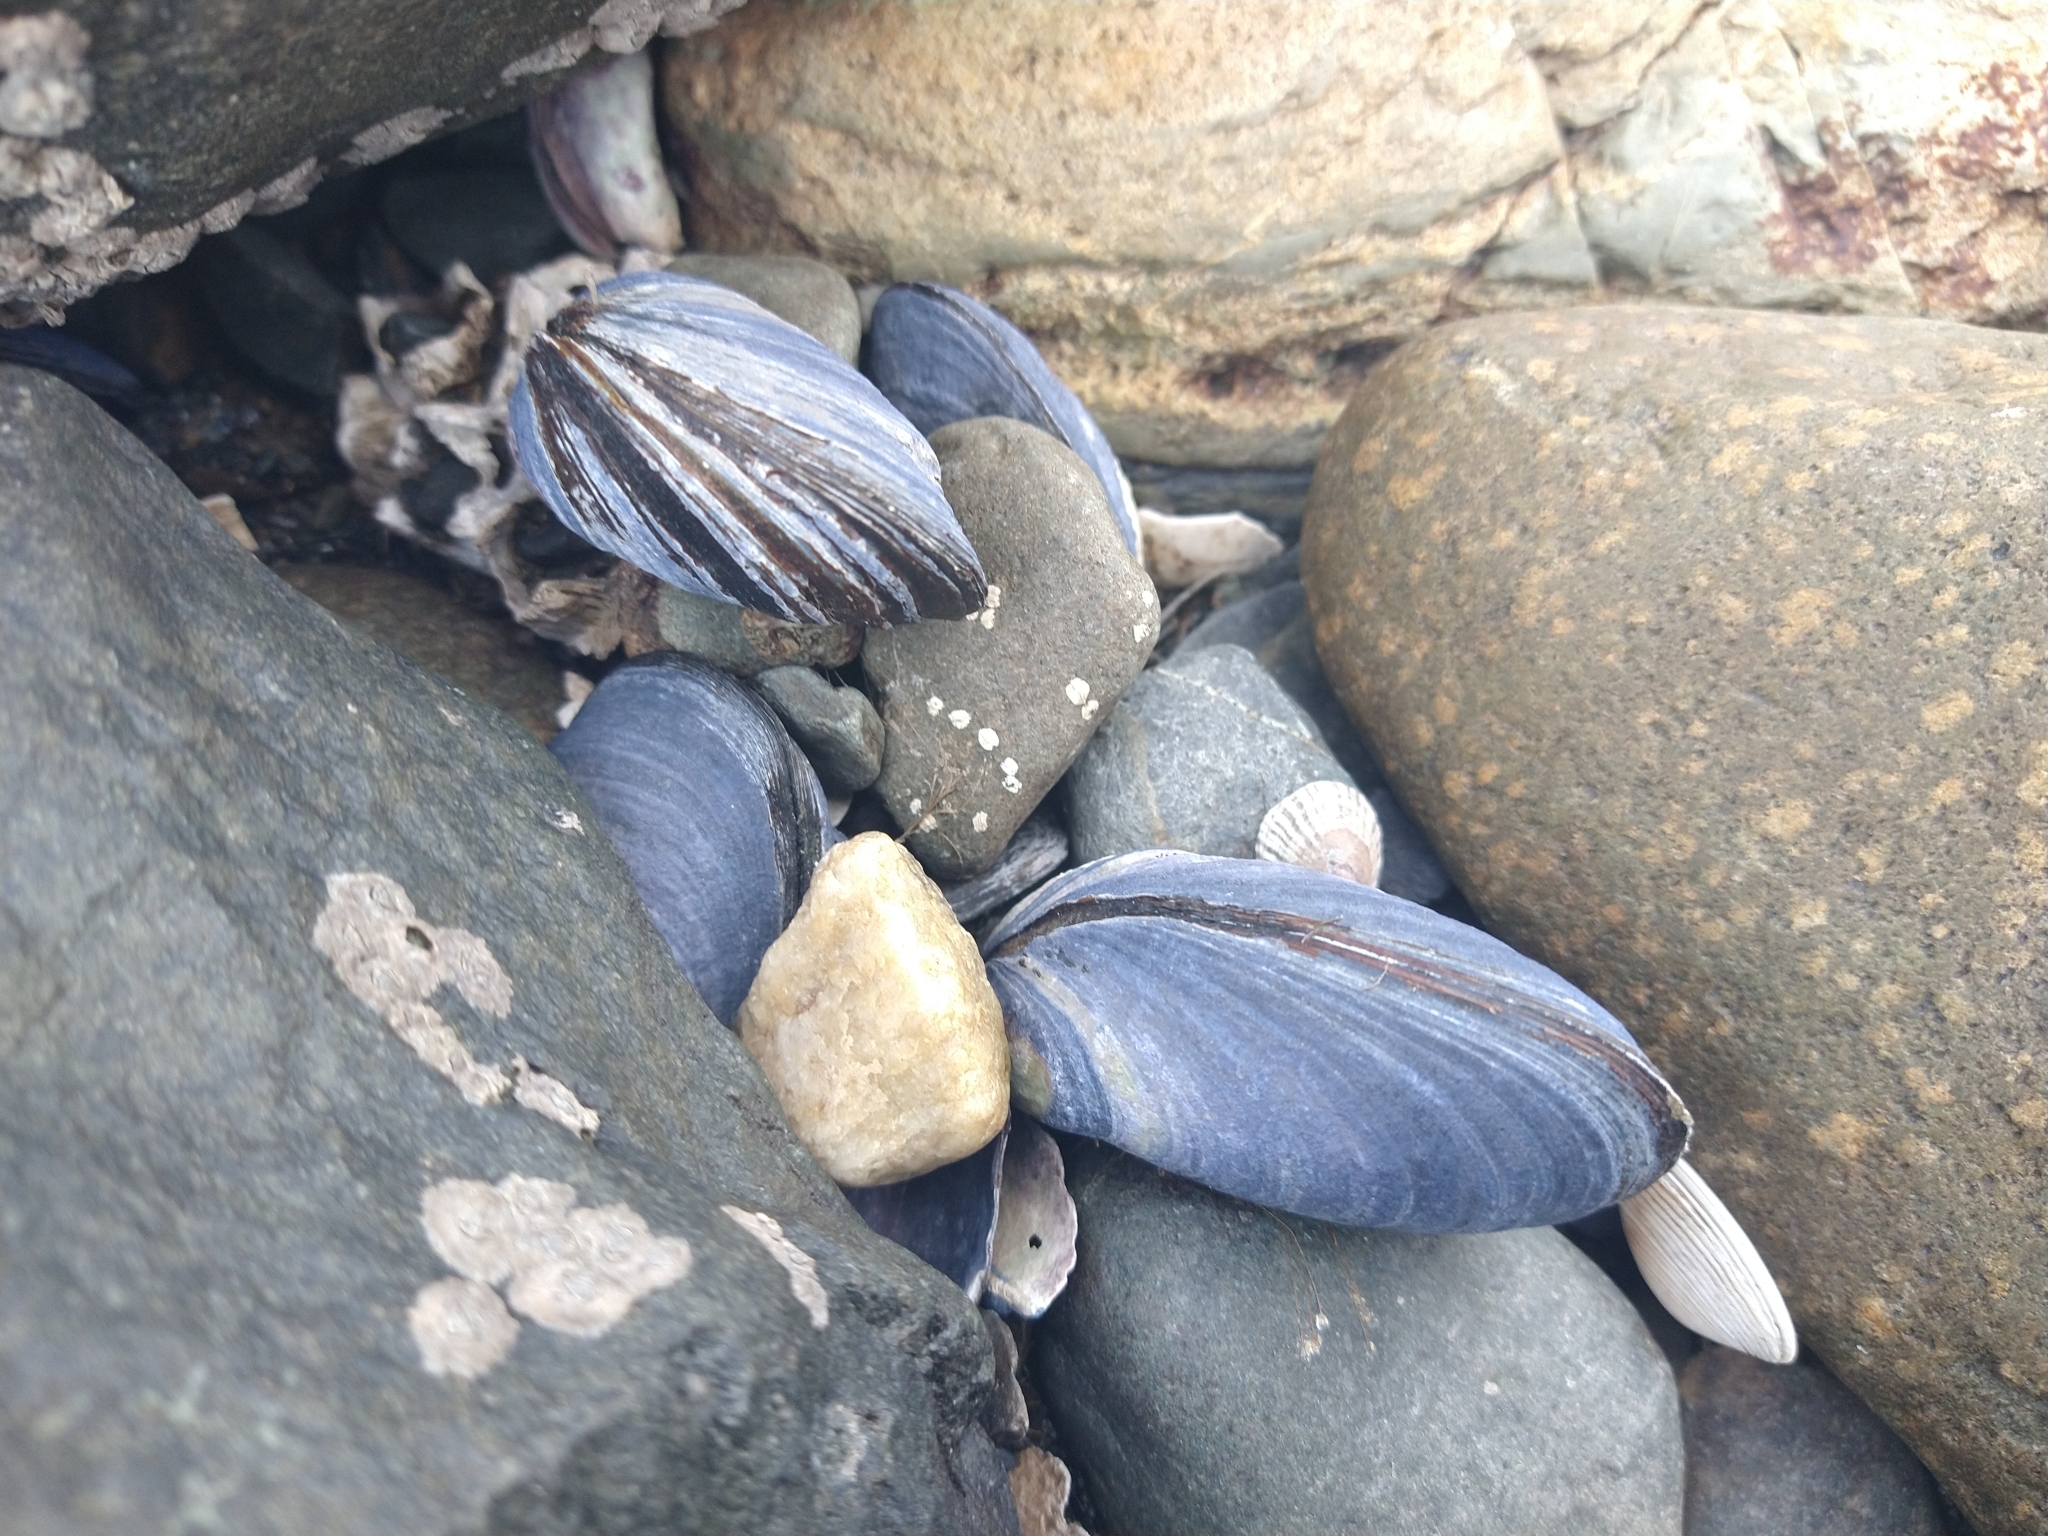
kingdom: Animalia
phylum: Mollusca
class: Bivalvia
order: Mytilida
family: Mytilidae
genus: Mytilus
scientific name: Mytilus chilensis
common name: Chilean mussel
